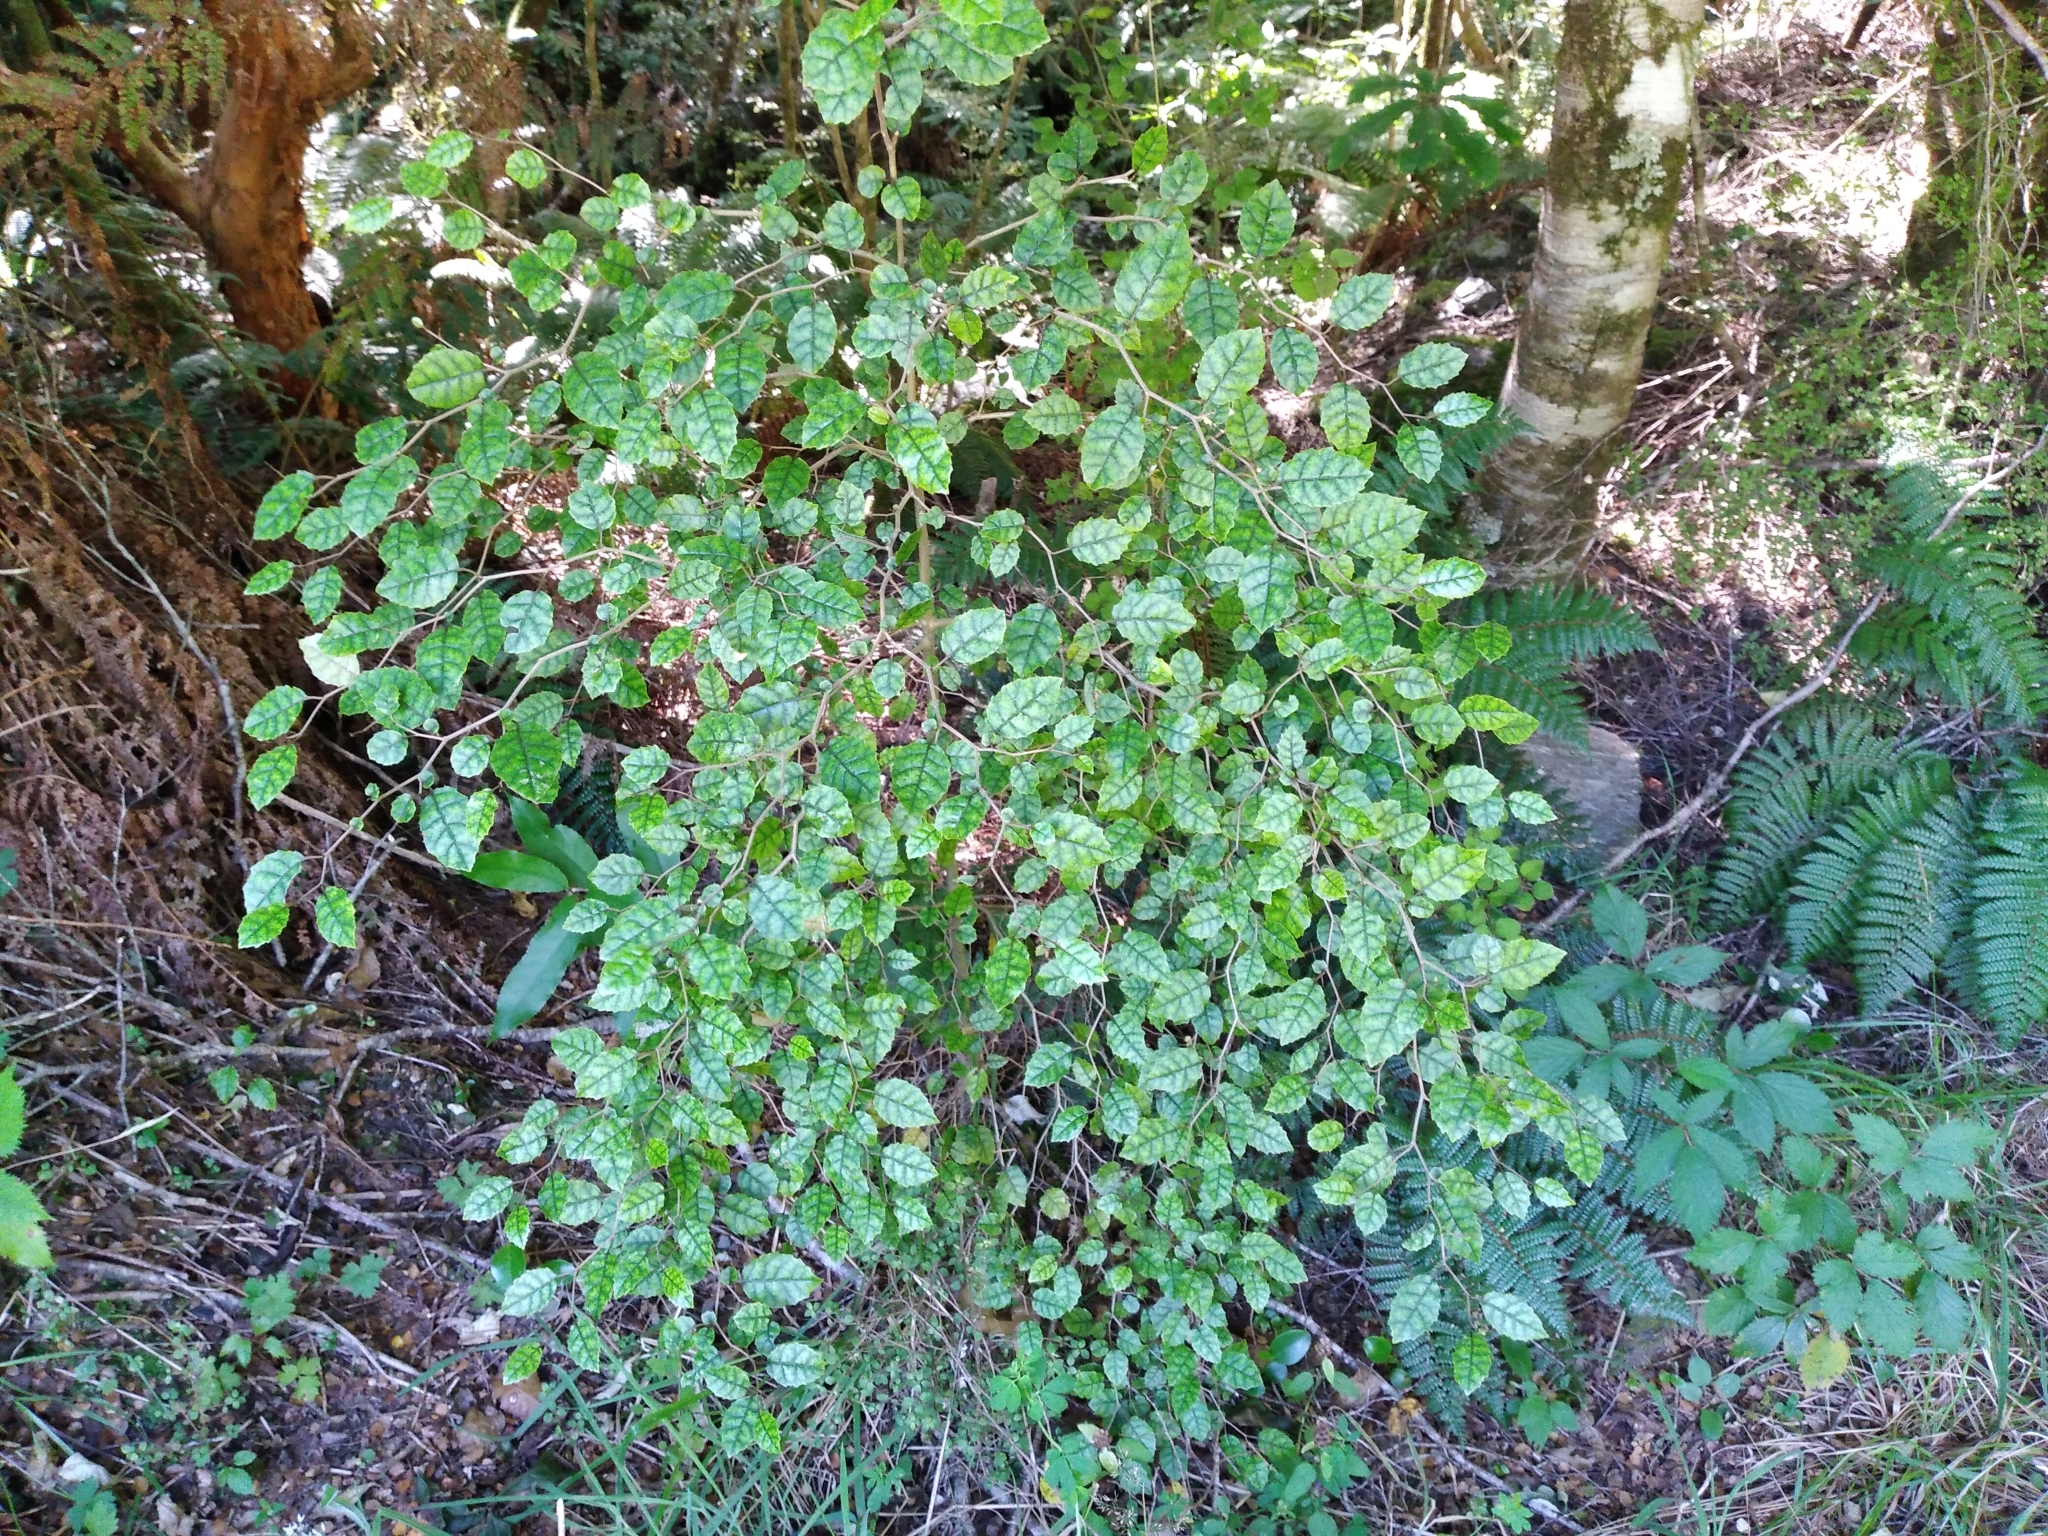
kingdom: Plantae
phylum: Tracheophyta
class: Magnoliopsida
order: Asterales
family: Rousseaceae
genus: Carpodetus
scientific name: Carpodetus serratus
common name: White mapau
